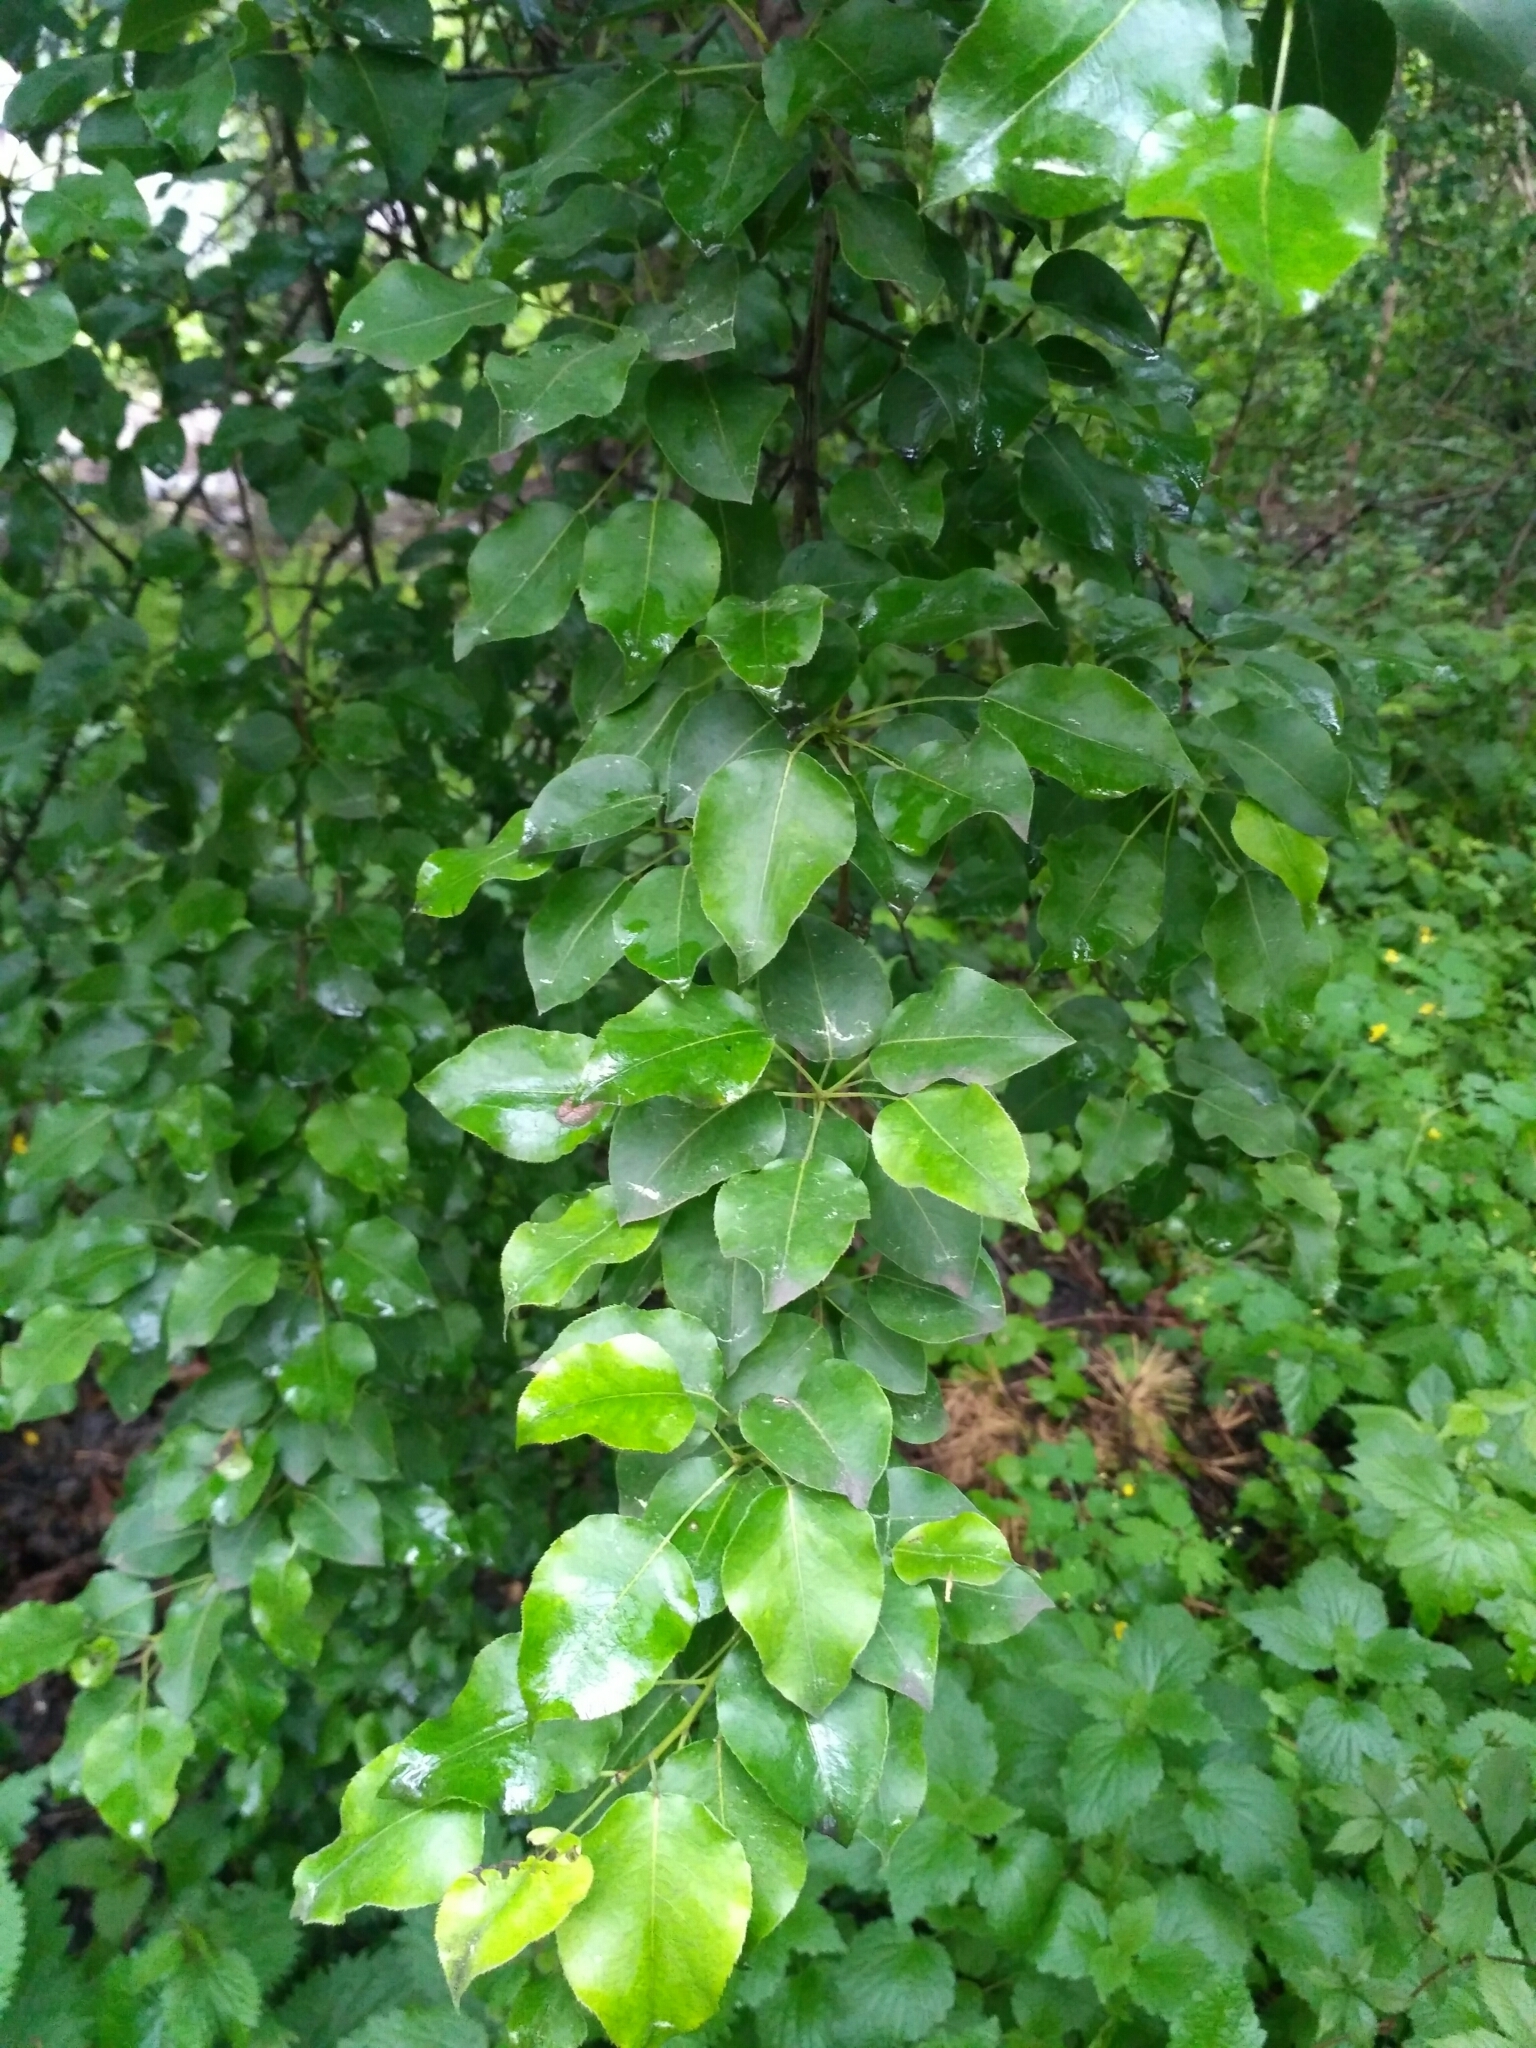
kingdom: Plantae
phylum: Tracheophyta
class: Magnoliopsida
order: Rosales
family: Rosaceae
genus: Pyrus
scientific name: Pyrus communis
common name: Pear
